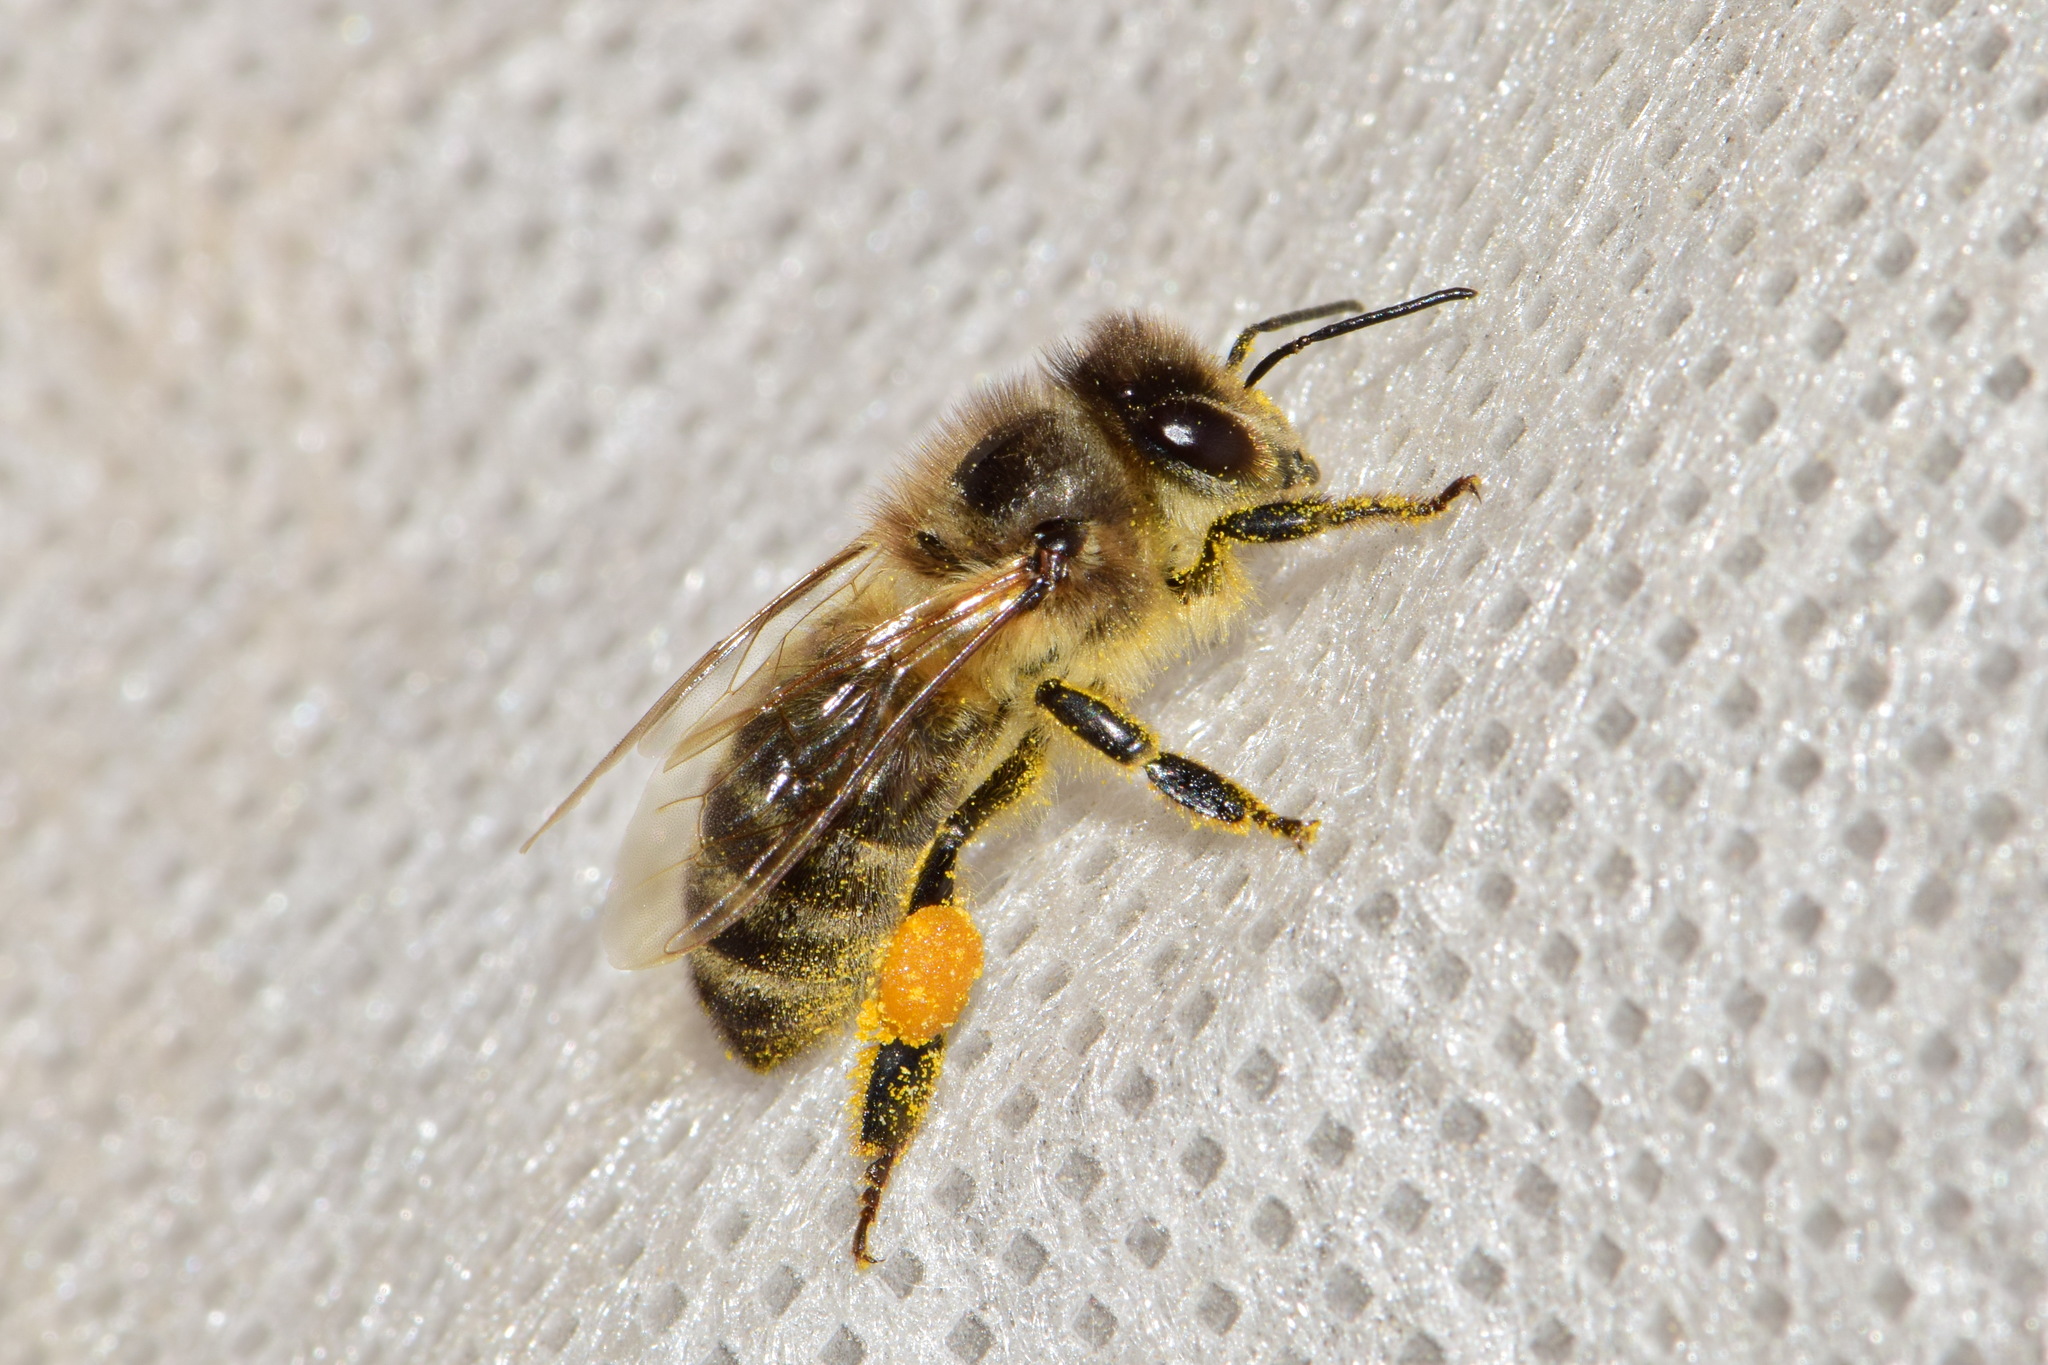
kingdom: Animalia
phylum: Arthropoda
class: Insecta
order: Hymenoptera
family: Apidae
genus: Apis
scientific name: Apis mellifera
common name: Honey bee
